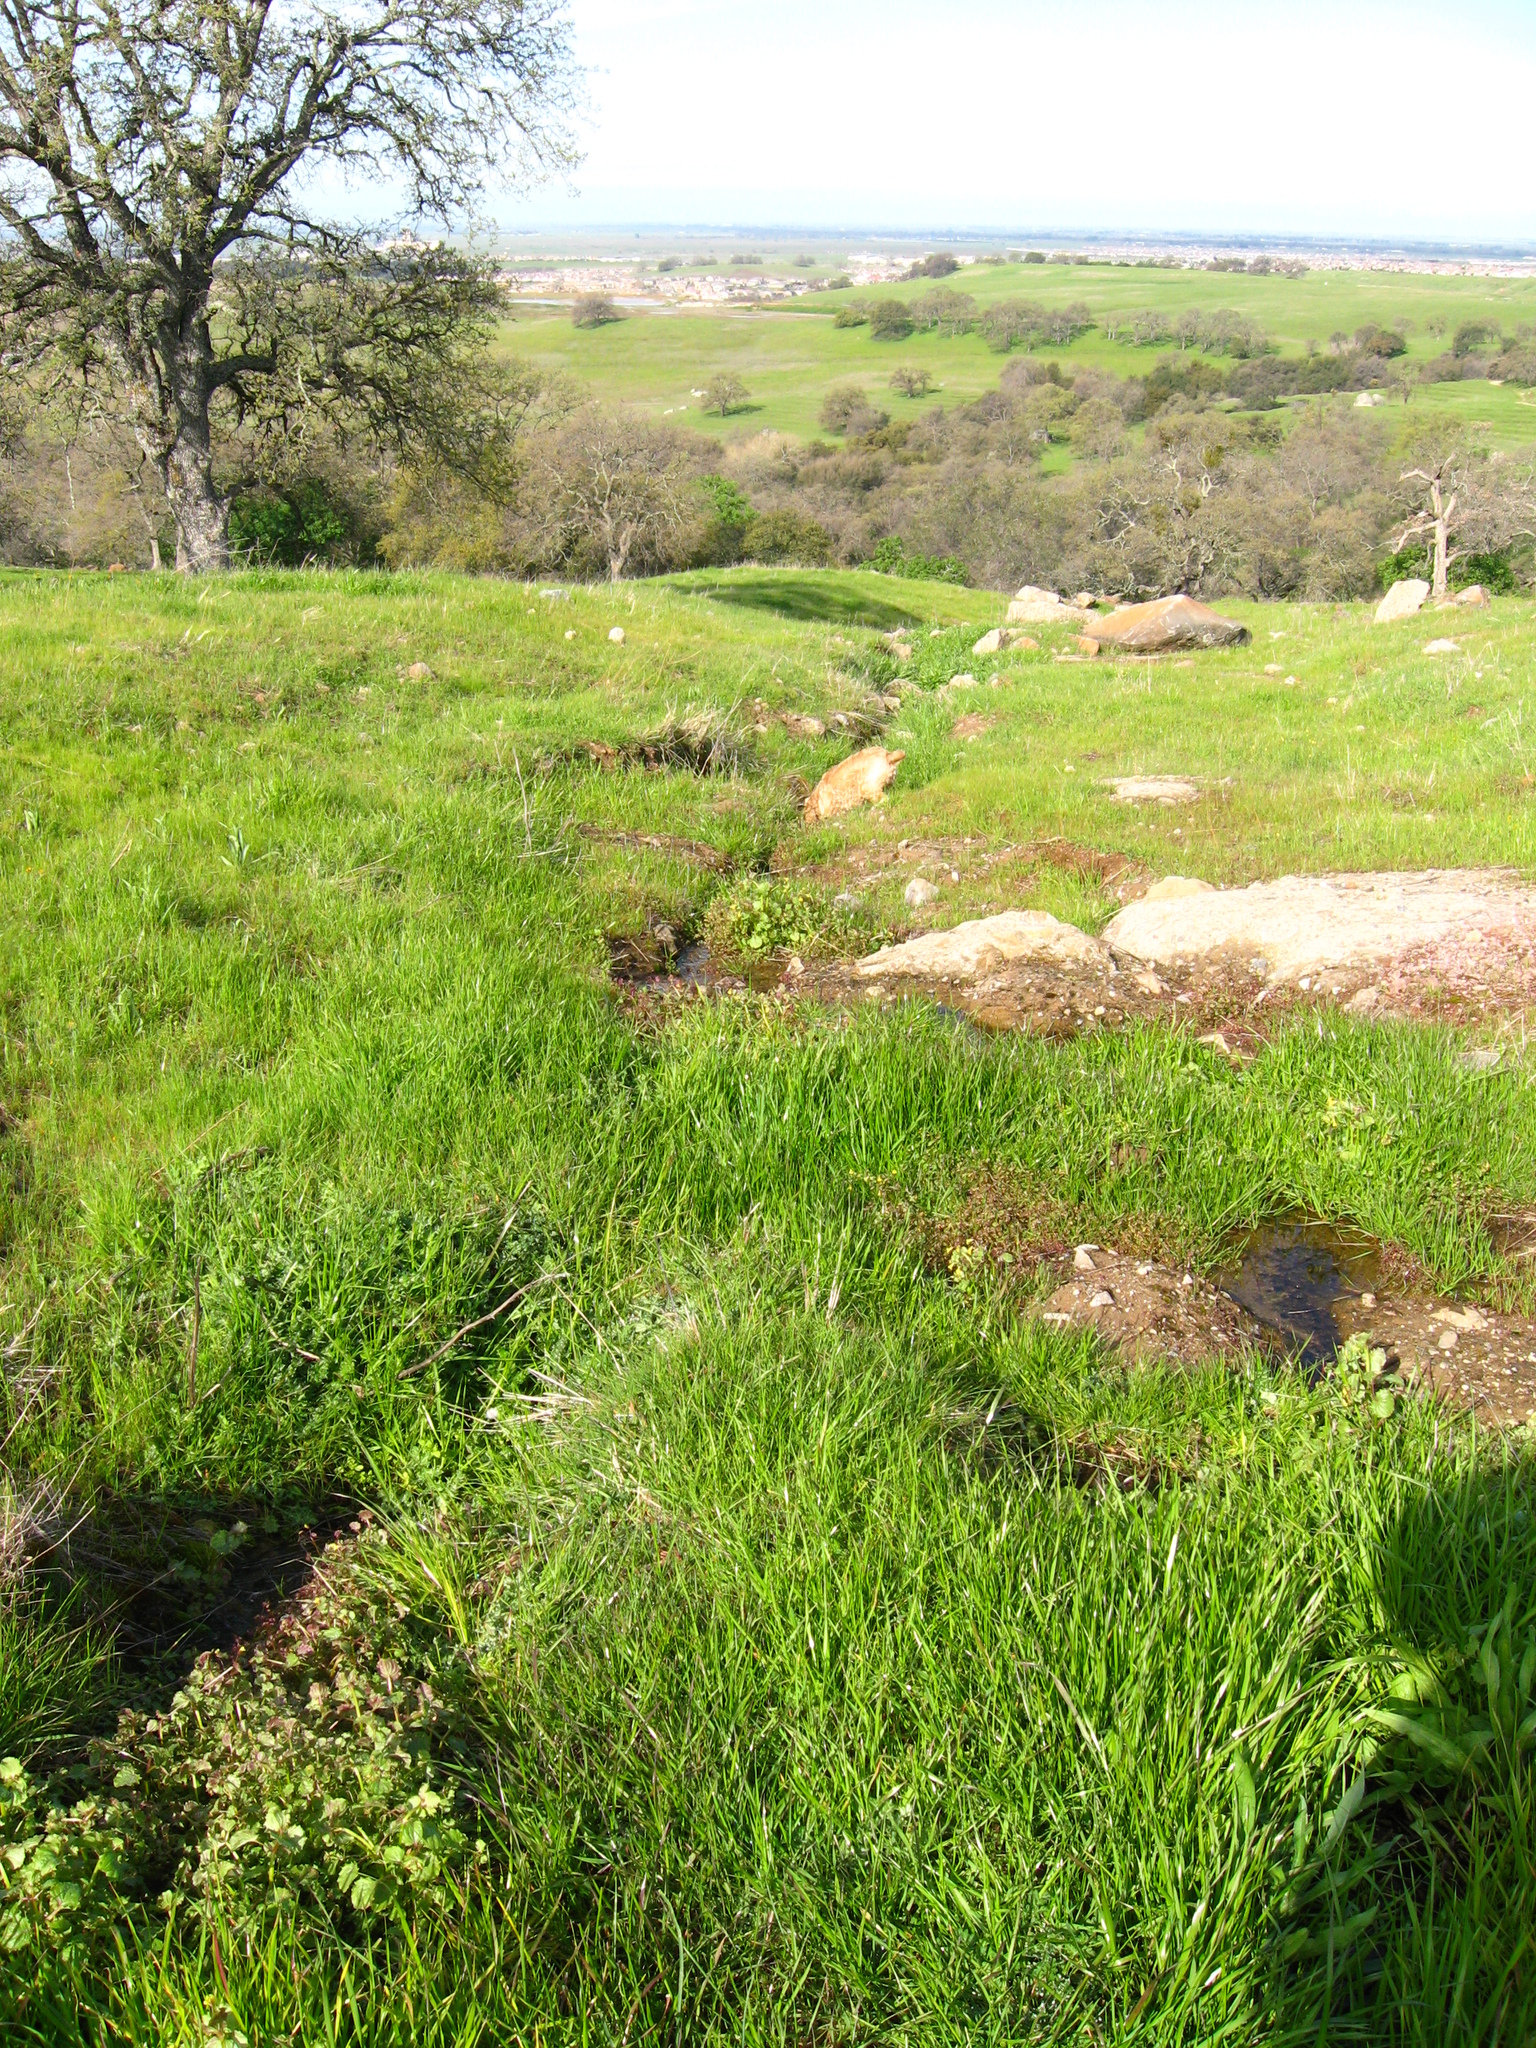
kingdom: Plantae
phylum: Tracheophyta
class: Magnoliopsida
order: Lamiales
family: Phrymaceae
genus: Erythranthe
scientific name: Erythranthe guttata
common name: Monkeyflower
